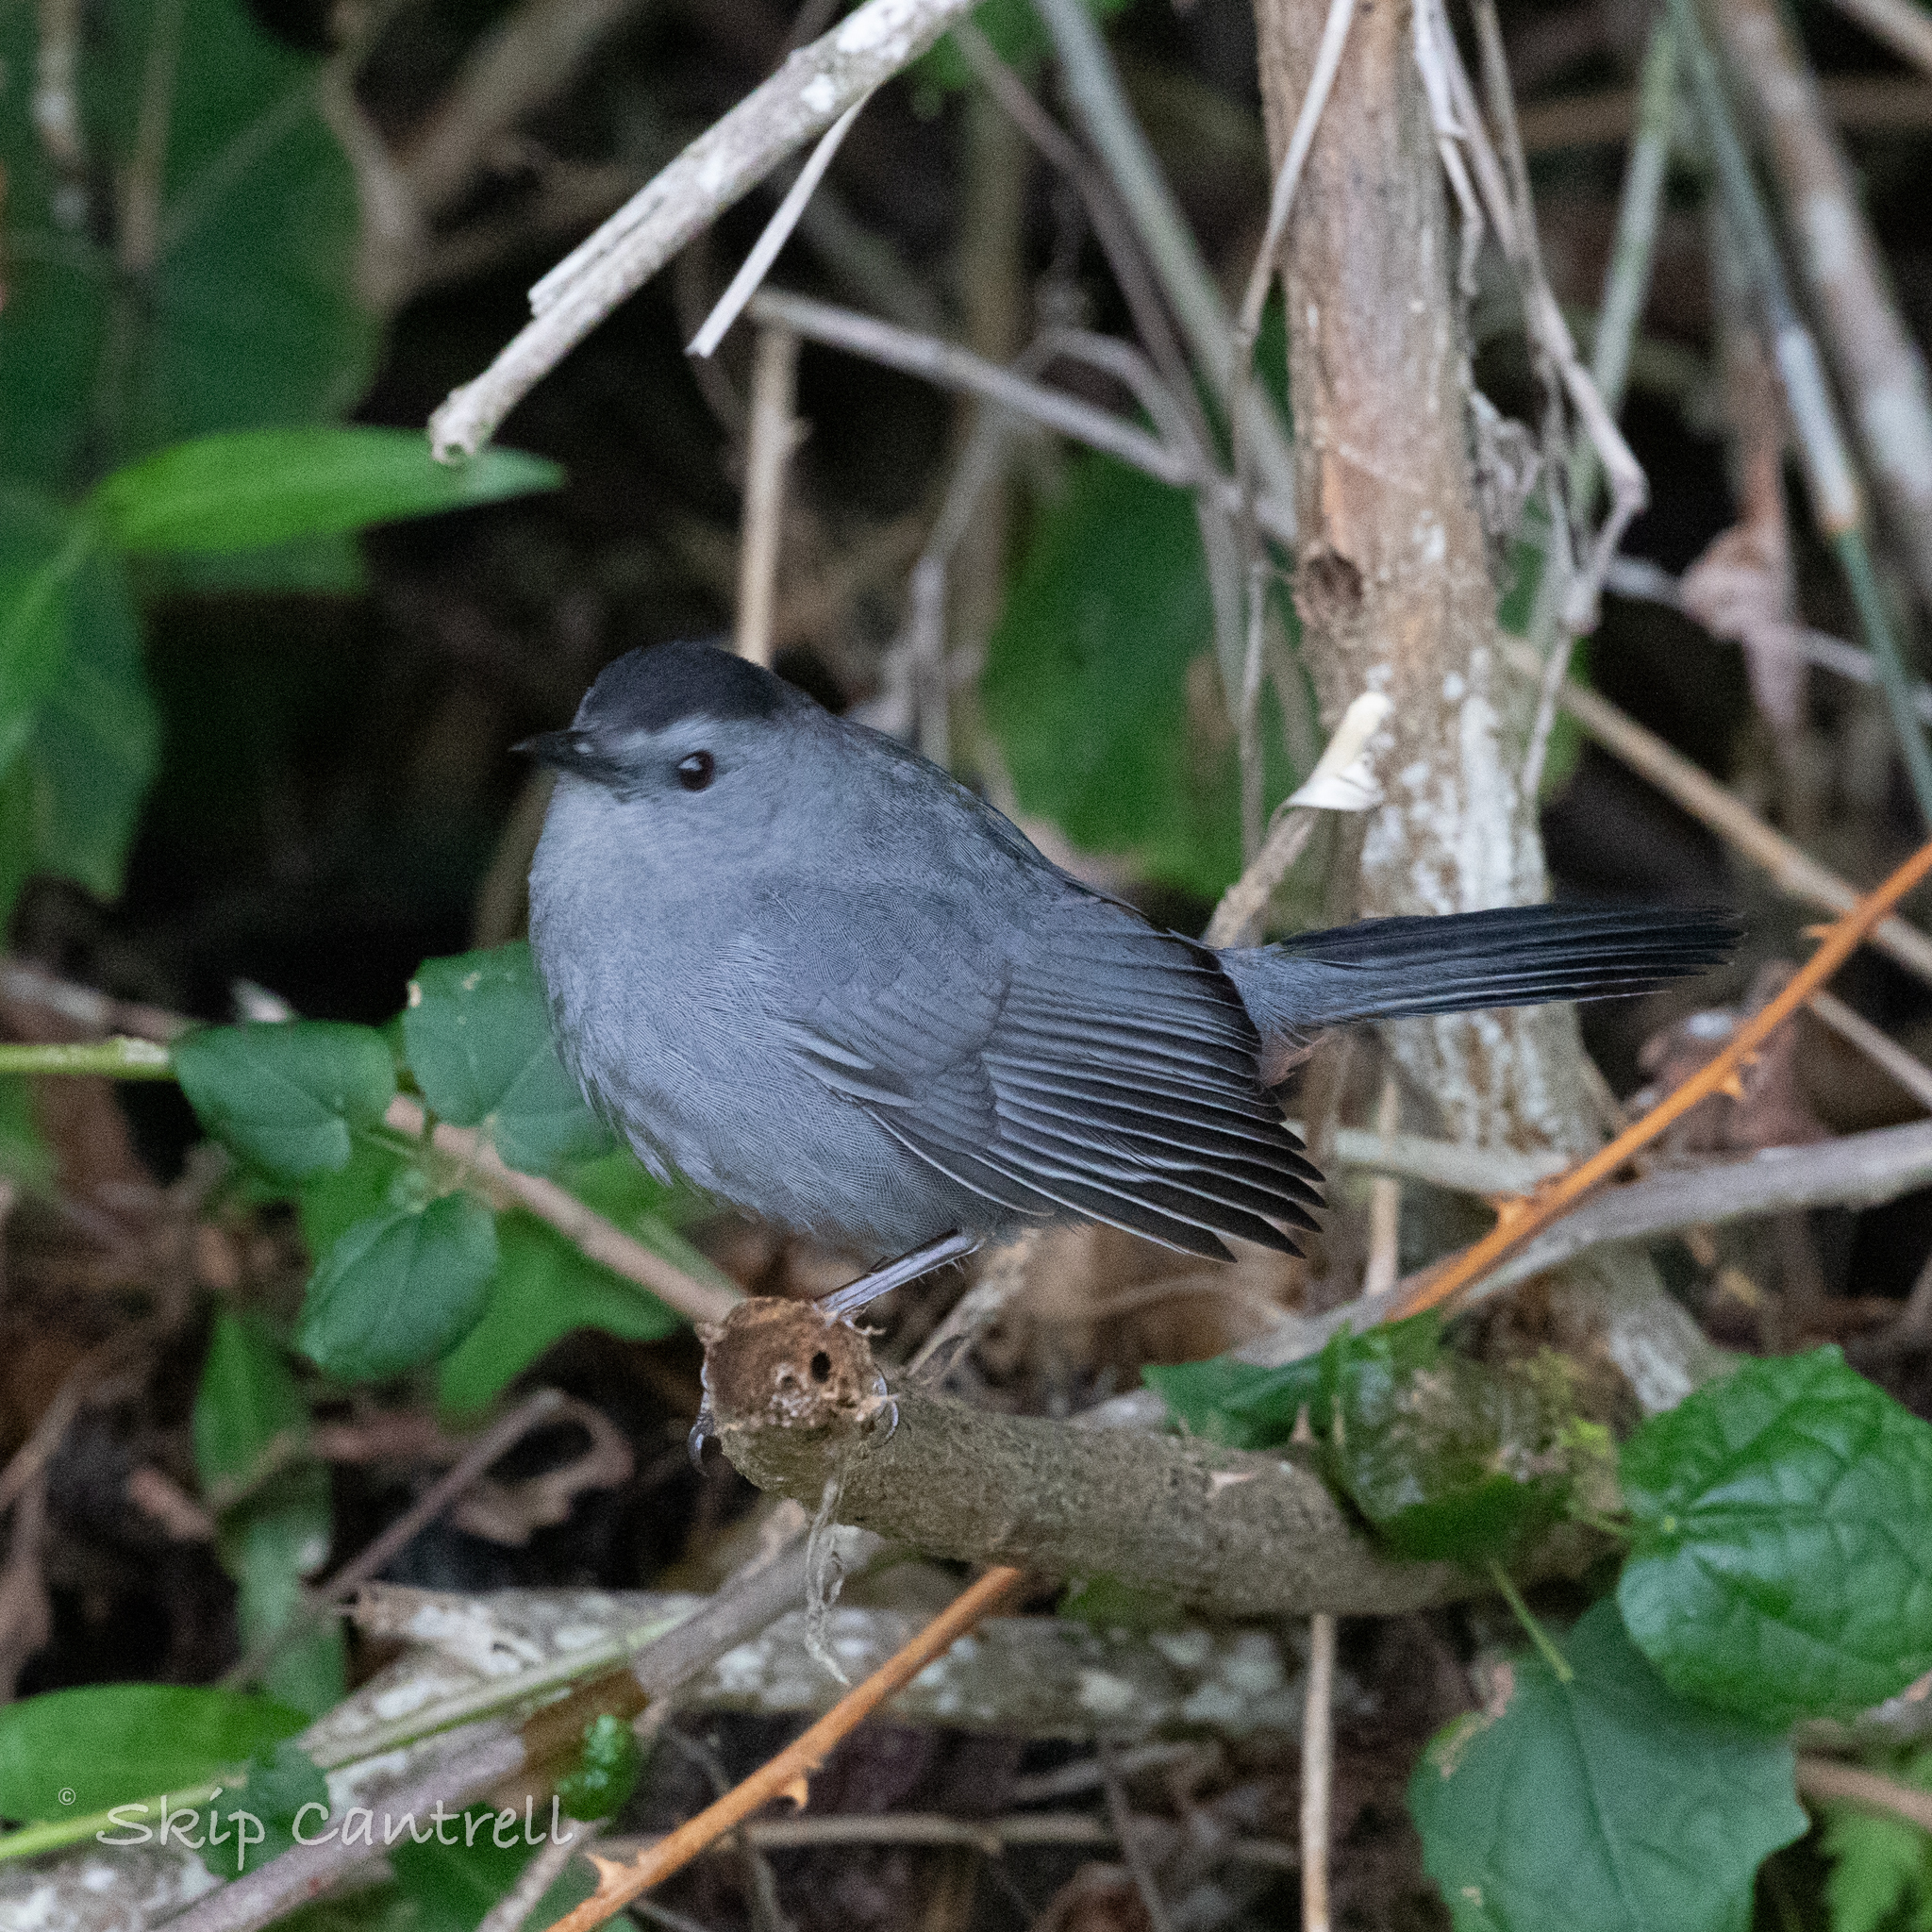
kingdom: Animalia
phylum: Chordata
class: Aves
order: Passeriformes
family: Mimidae
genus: Dumetella
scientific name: Dumetella carolinensis
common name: Gray catbird
